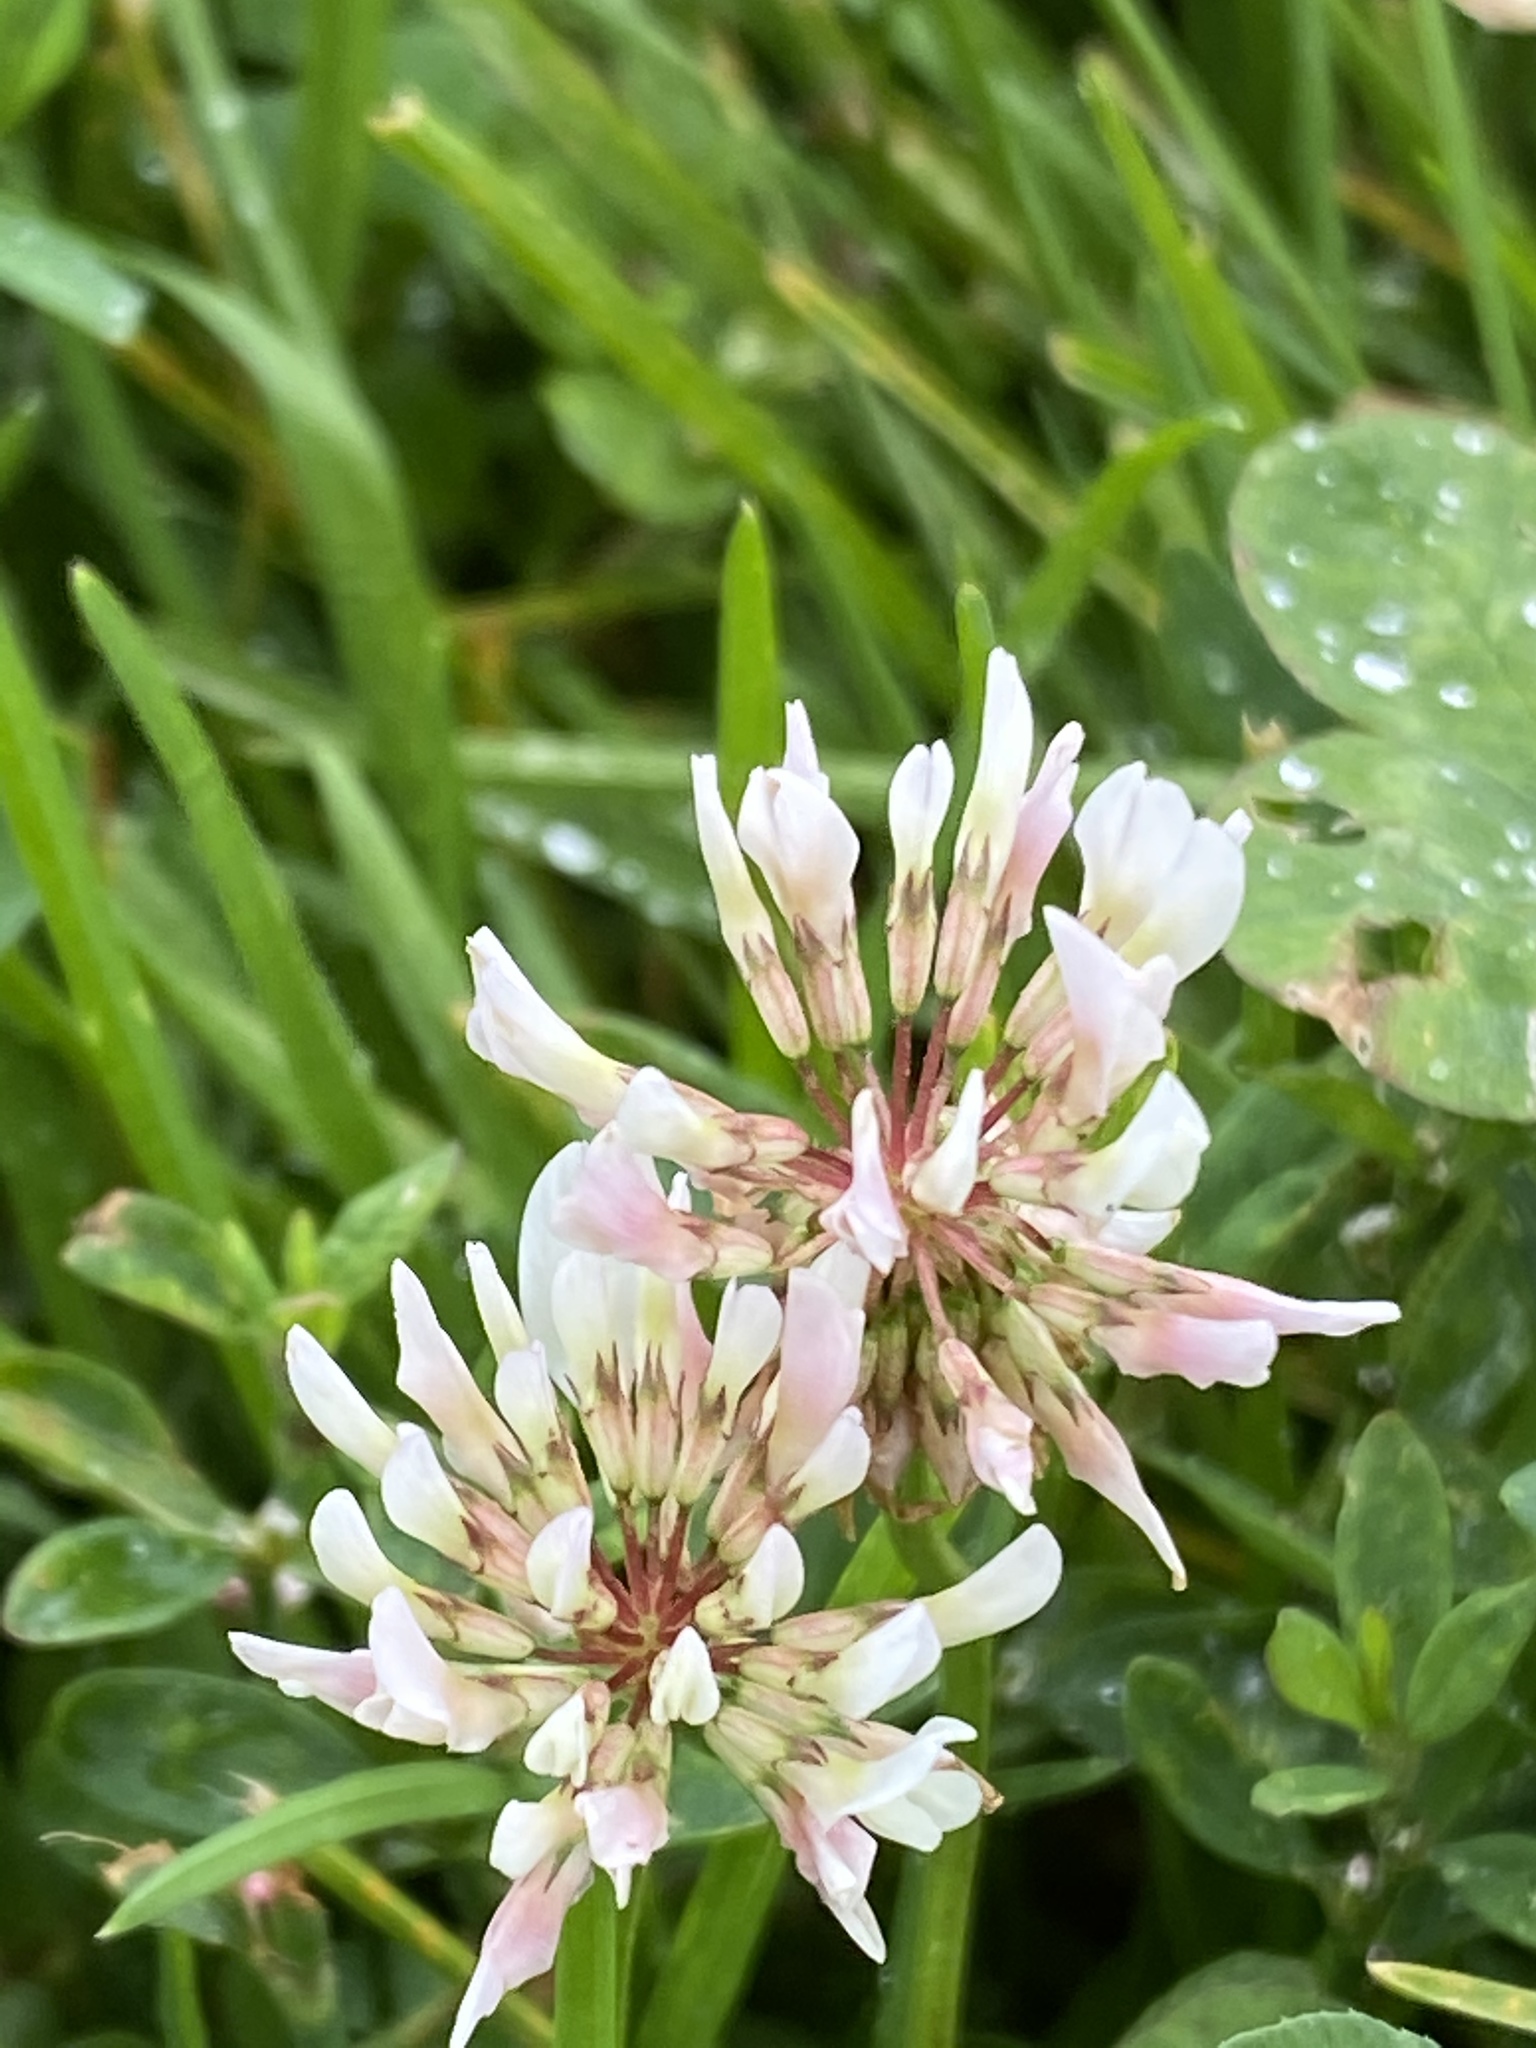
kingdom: Plantae
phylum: Tracheophyta
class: Magnoliopsida
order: Fabales
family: Fabaceae
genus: Trifolium
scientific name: Trifolium repens
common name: White clover
